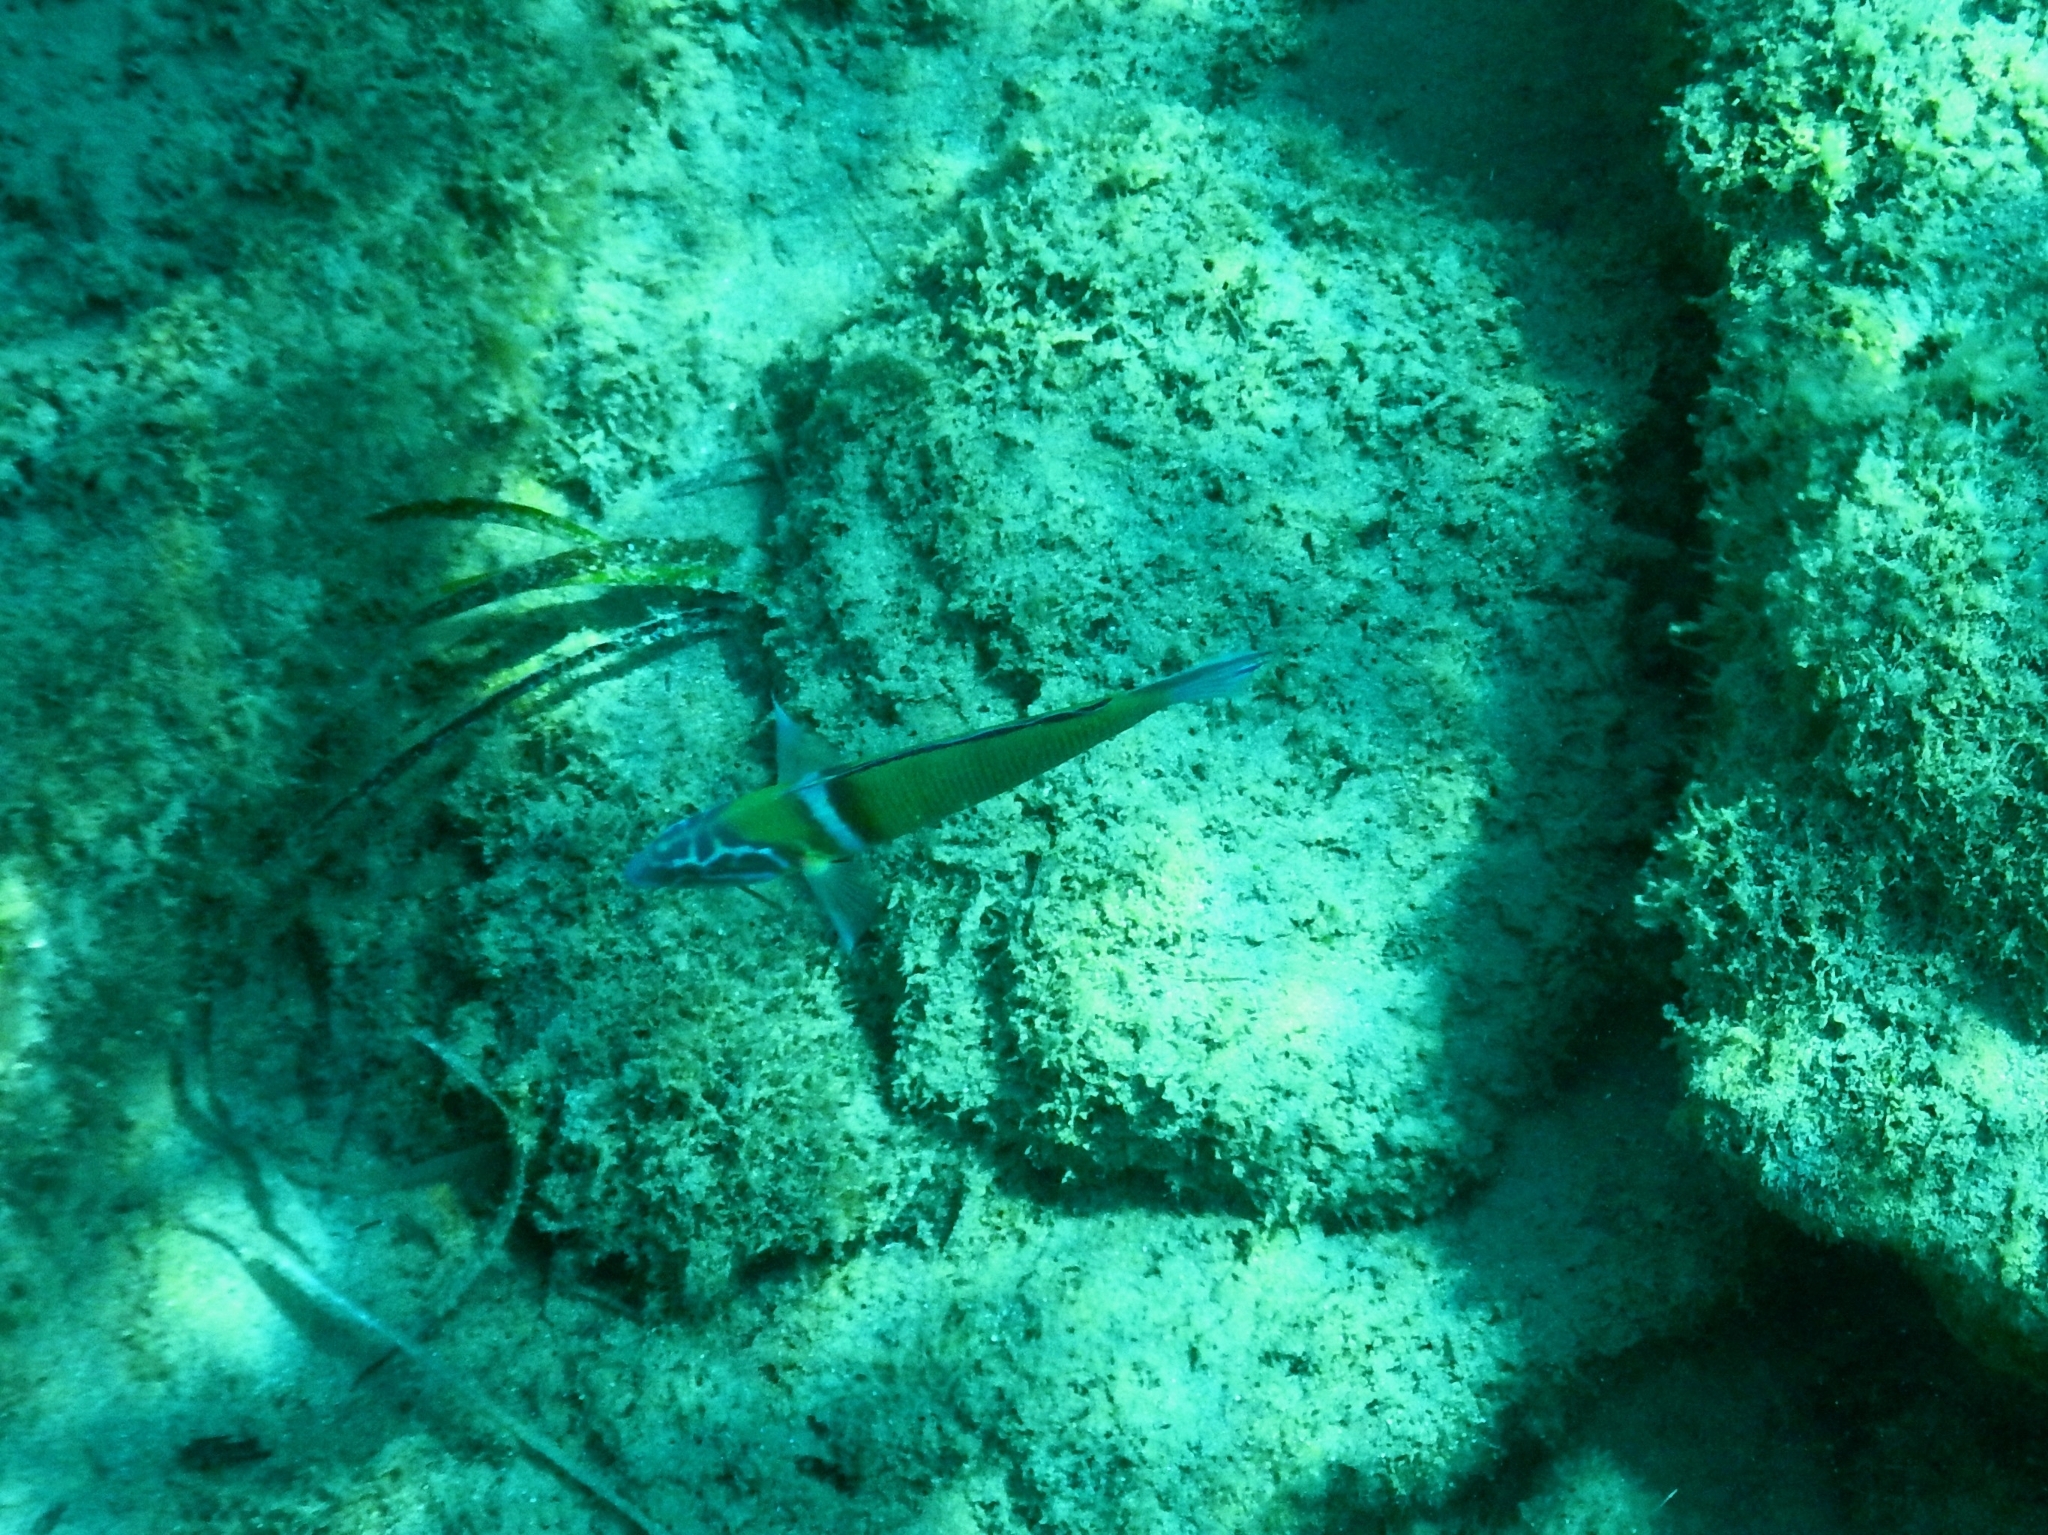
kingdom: Animalia
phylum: Chordata
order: Perciformes
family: Labridae
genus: Thalassoma
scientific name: Thalassoma pavo
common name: Ornate wrasse
